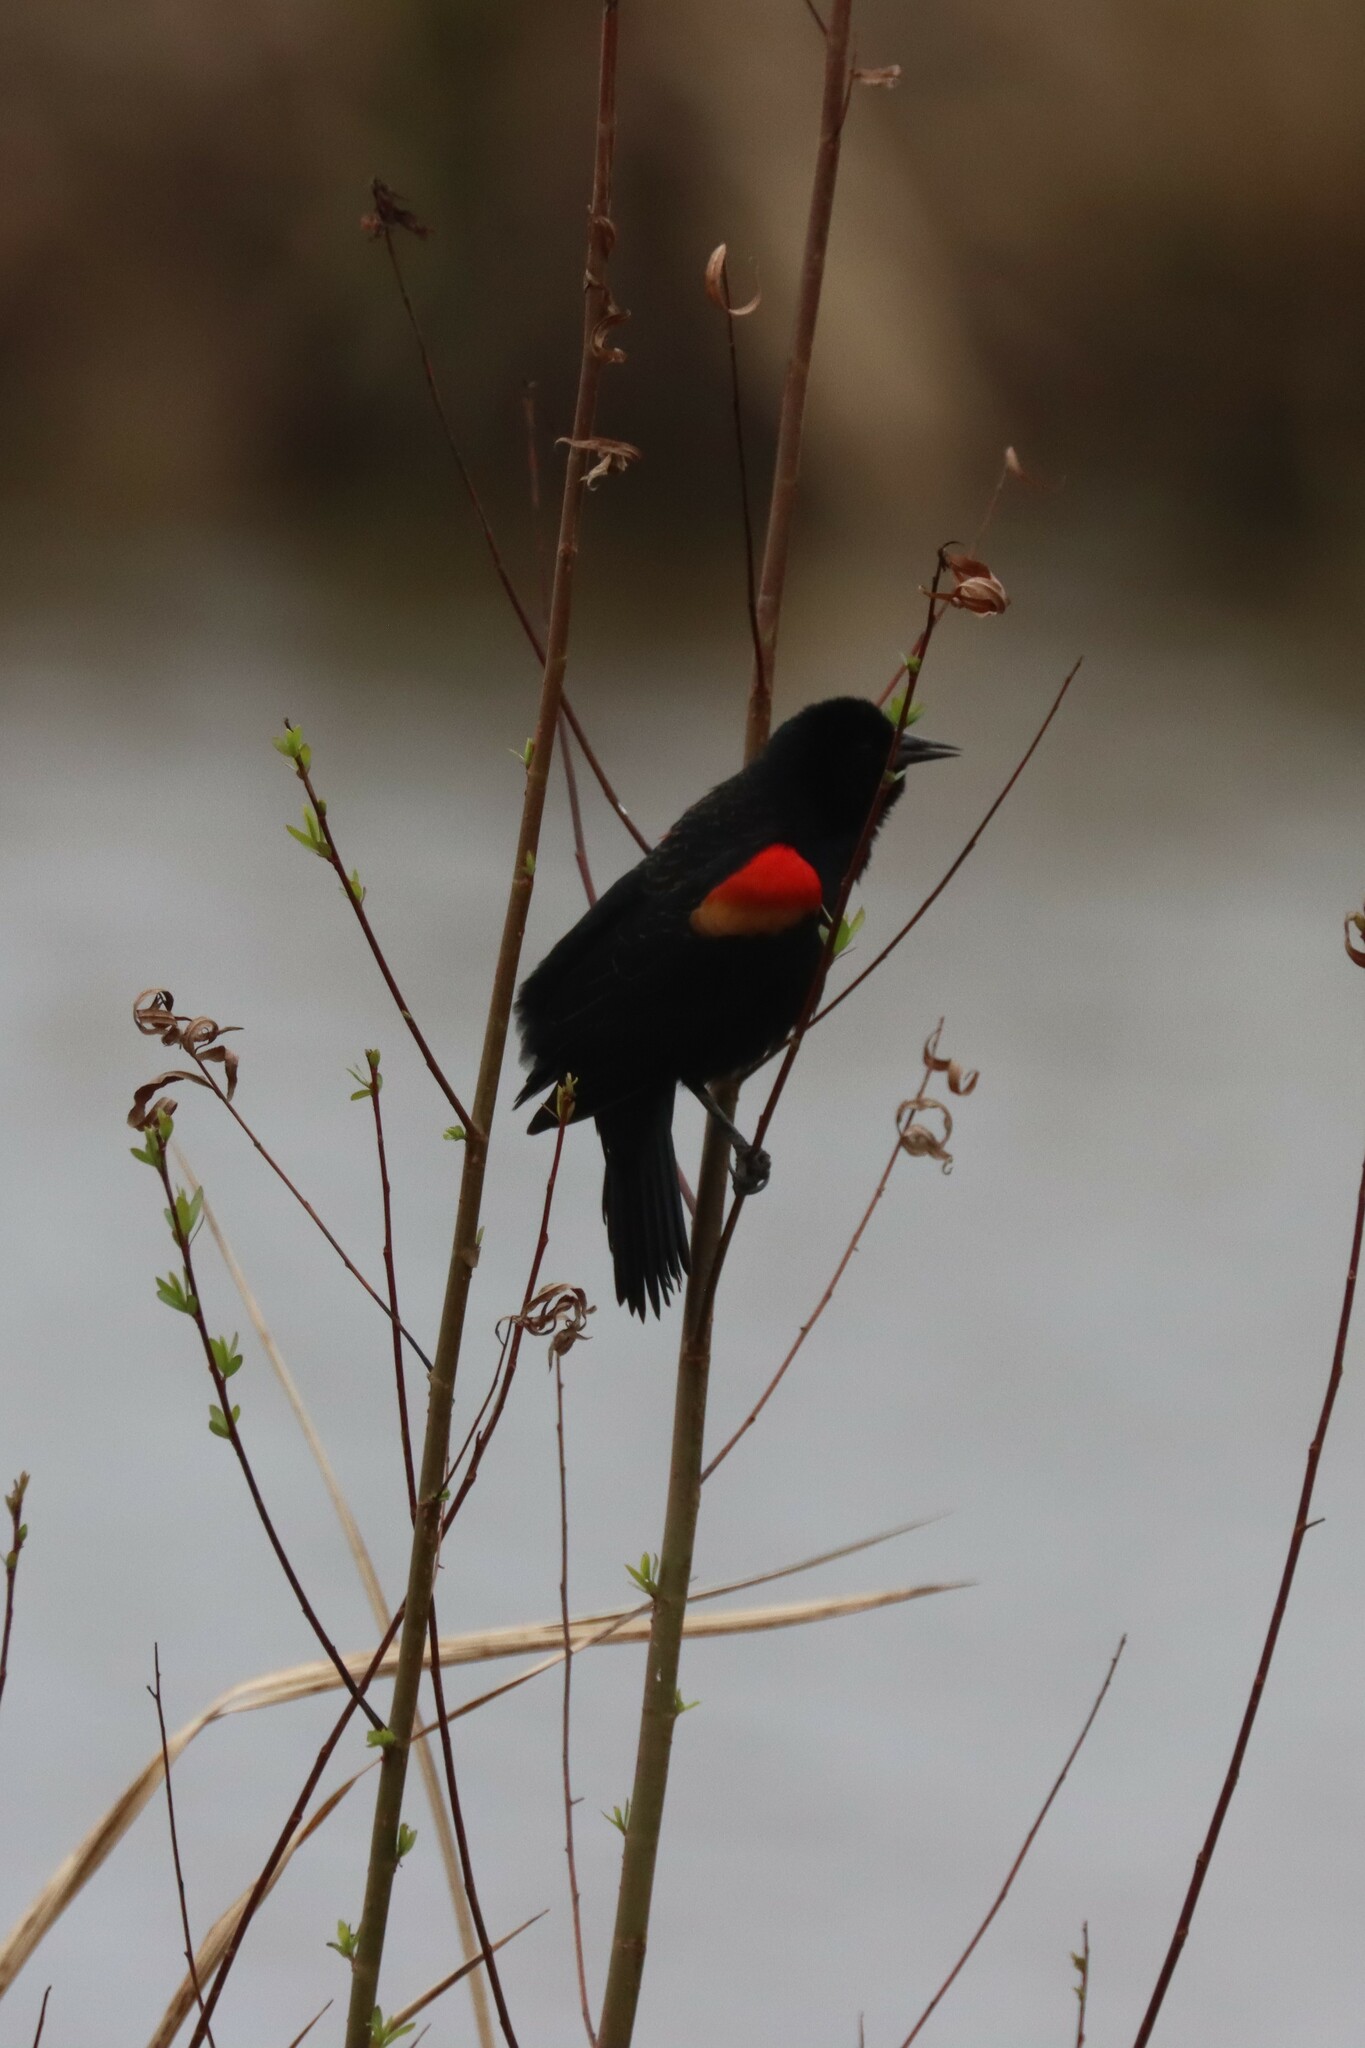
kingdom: Animalia
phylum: Chordata
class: Aves
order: Passeriformes
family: Icteridae
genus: Agelaius
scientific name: Agelaius phoeniceus
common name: Red-winged blackbird
